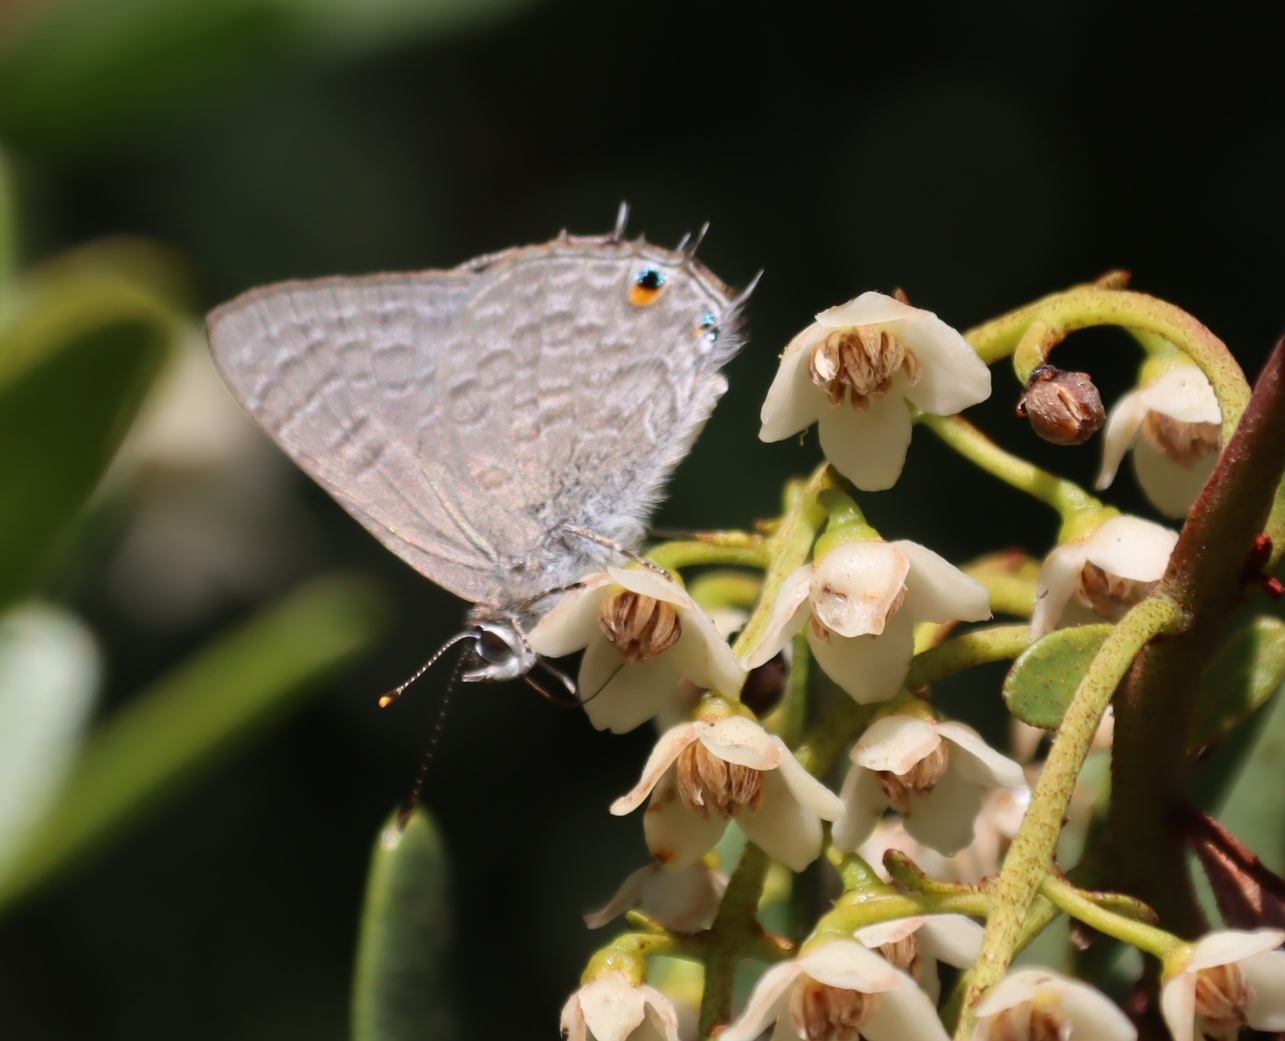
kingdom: Animalia
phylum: Arthropoda
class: Insecta
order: Lepidoptera
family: Lycaenidae
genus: Anthene
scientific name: Anthene definita
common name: Common ciliate blue
